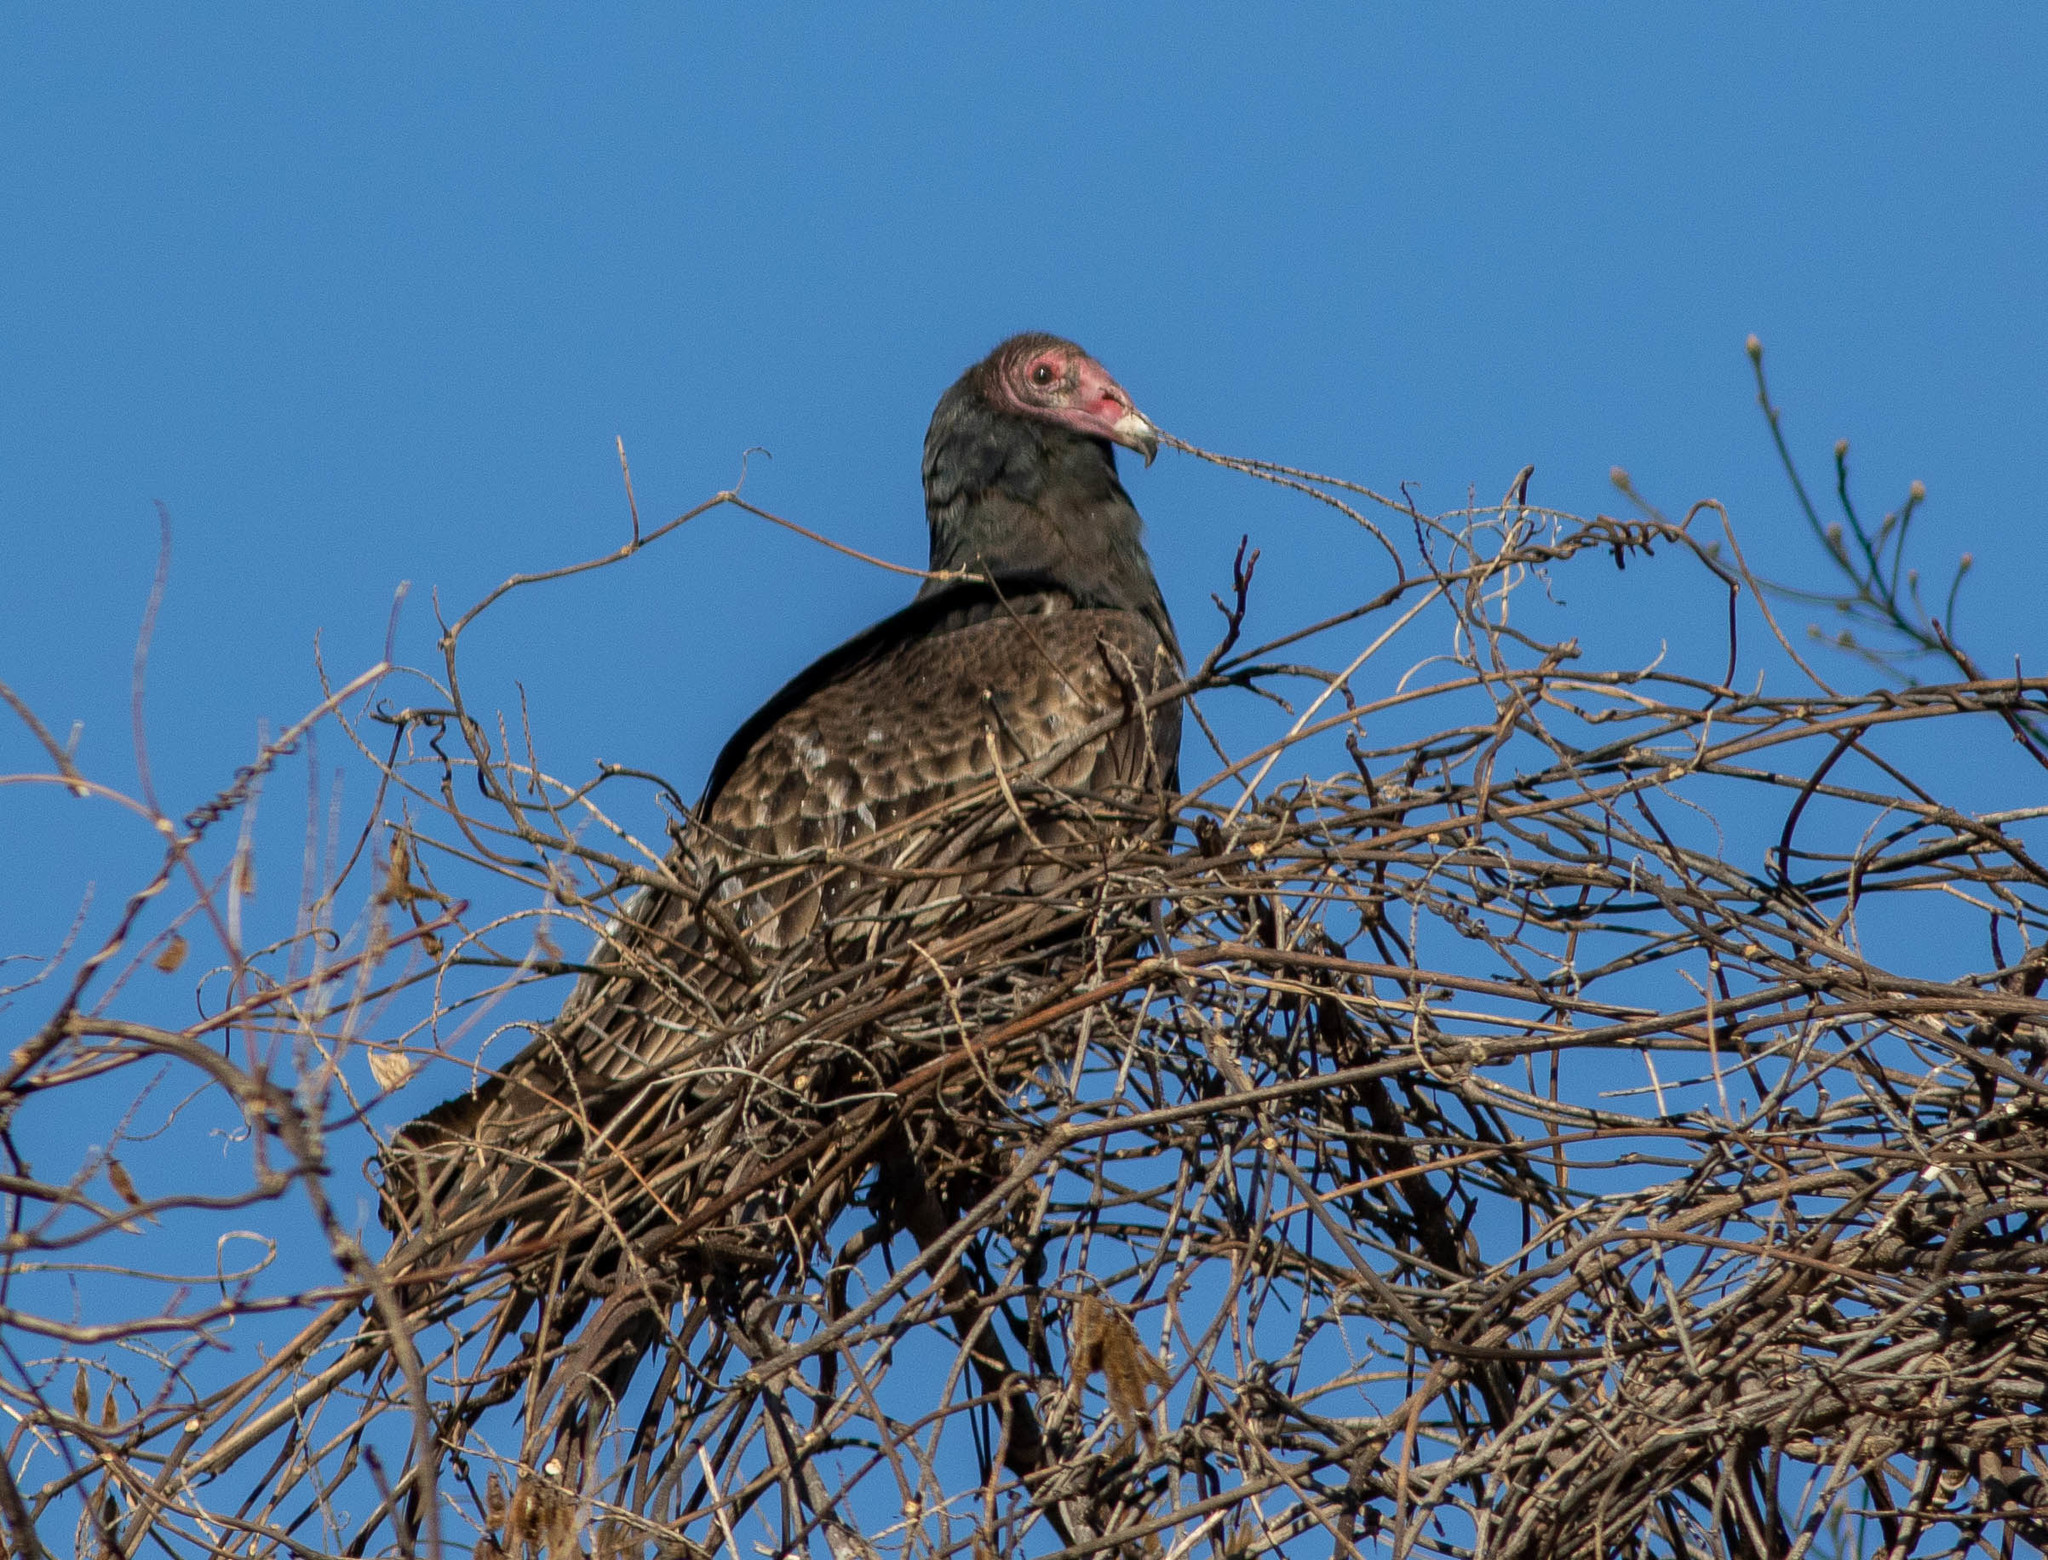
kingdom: Animalia
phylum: Chordata
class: Aves
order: Accipitriformes
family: Cathartidae
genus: Cathartes
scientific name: Cathartes aura
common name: Turkey vulture
